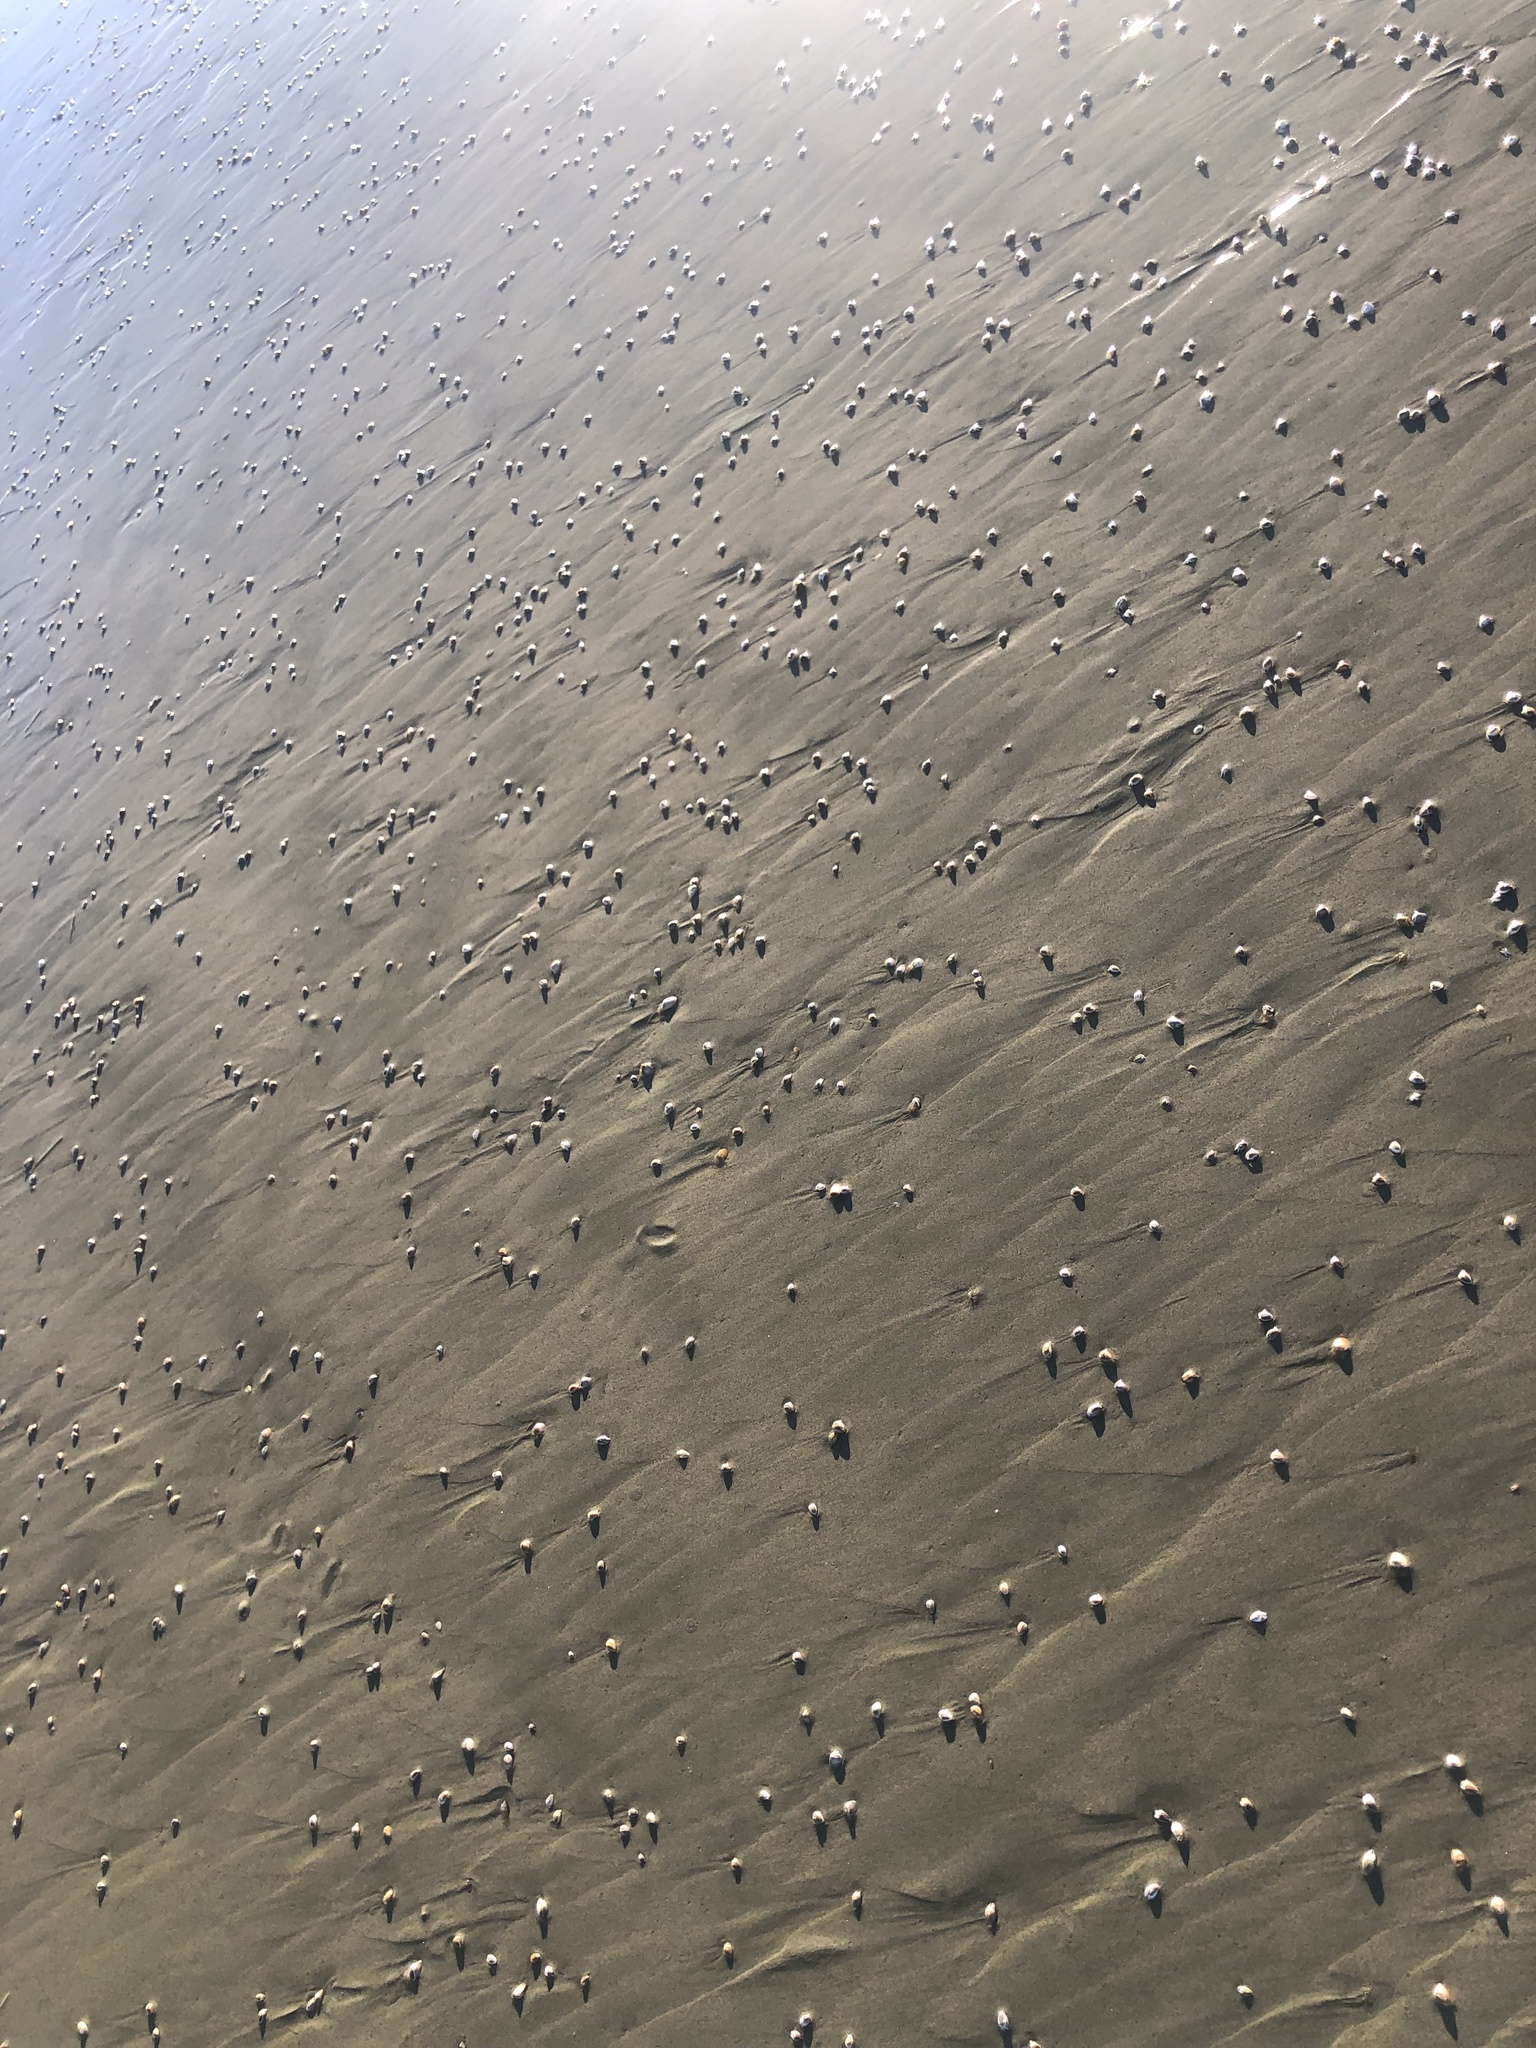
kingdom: Animalia
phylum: Mollusca
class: Bivalvia
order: Cardiida
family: Donacidae
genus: Donax
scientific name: Donax gouldii
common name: Gould beanclam
